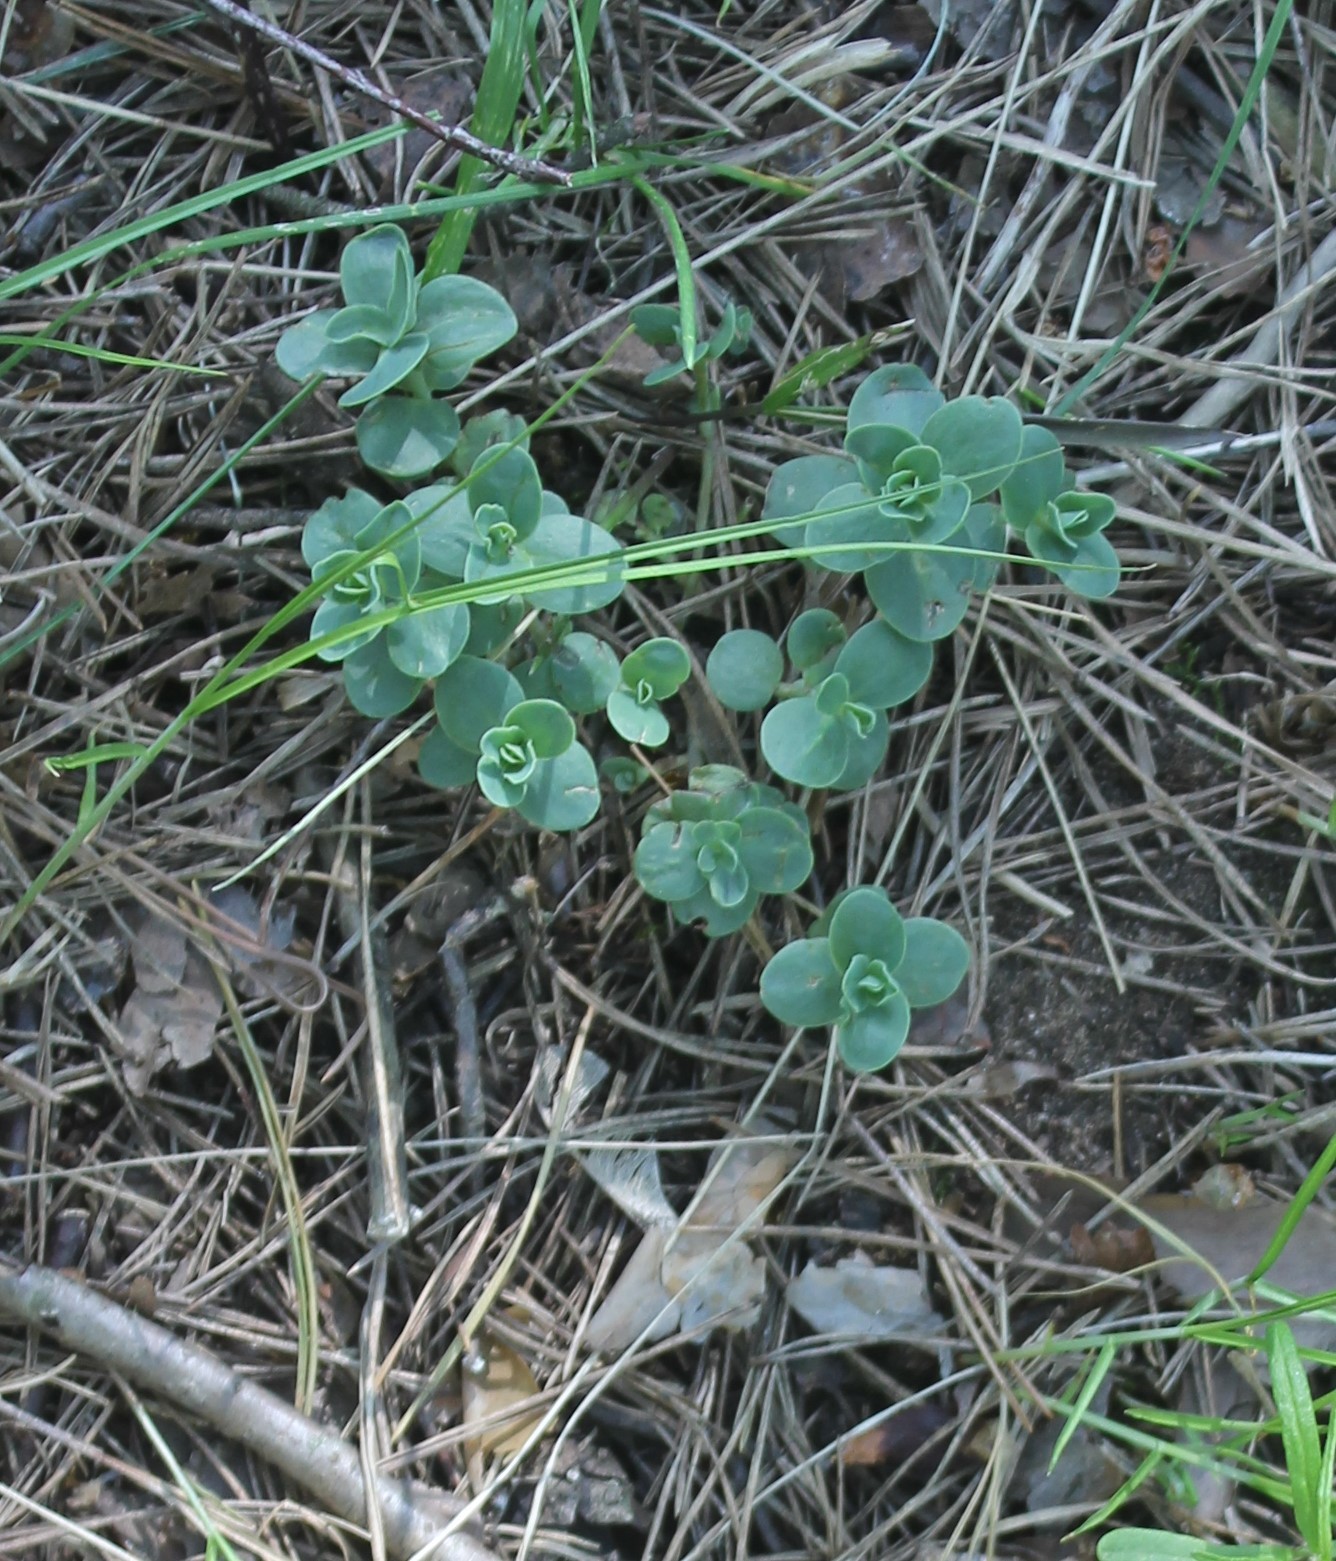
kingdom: Plantae
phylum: Tracheophyta
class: Magnoliopsida
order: Saxifragales
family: Crassulaceae
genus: Hylotelephium
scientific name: Hylotelephium maximum
